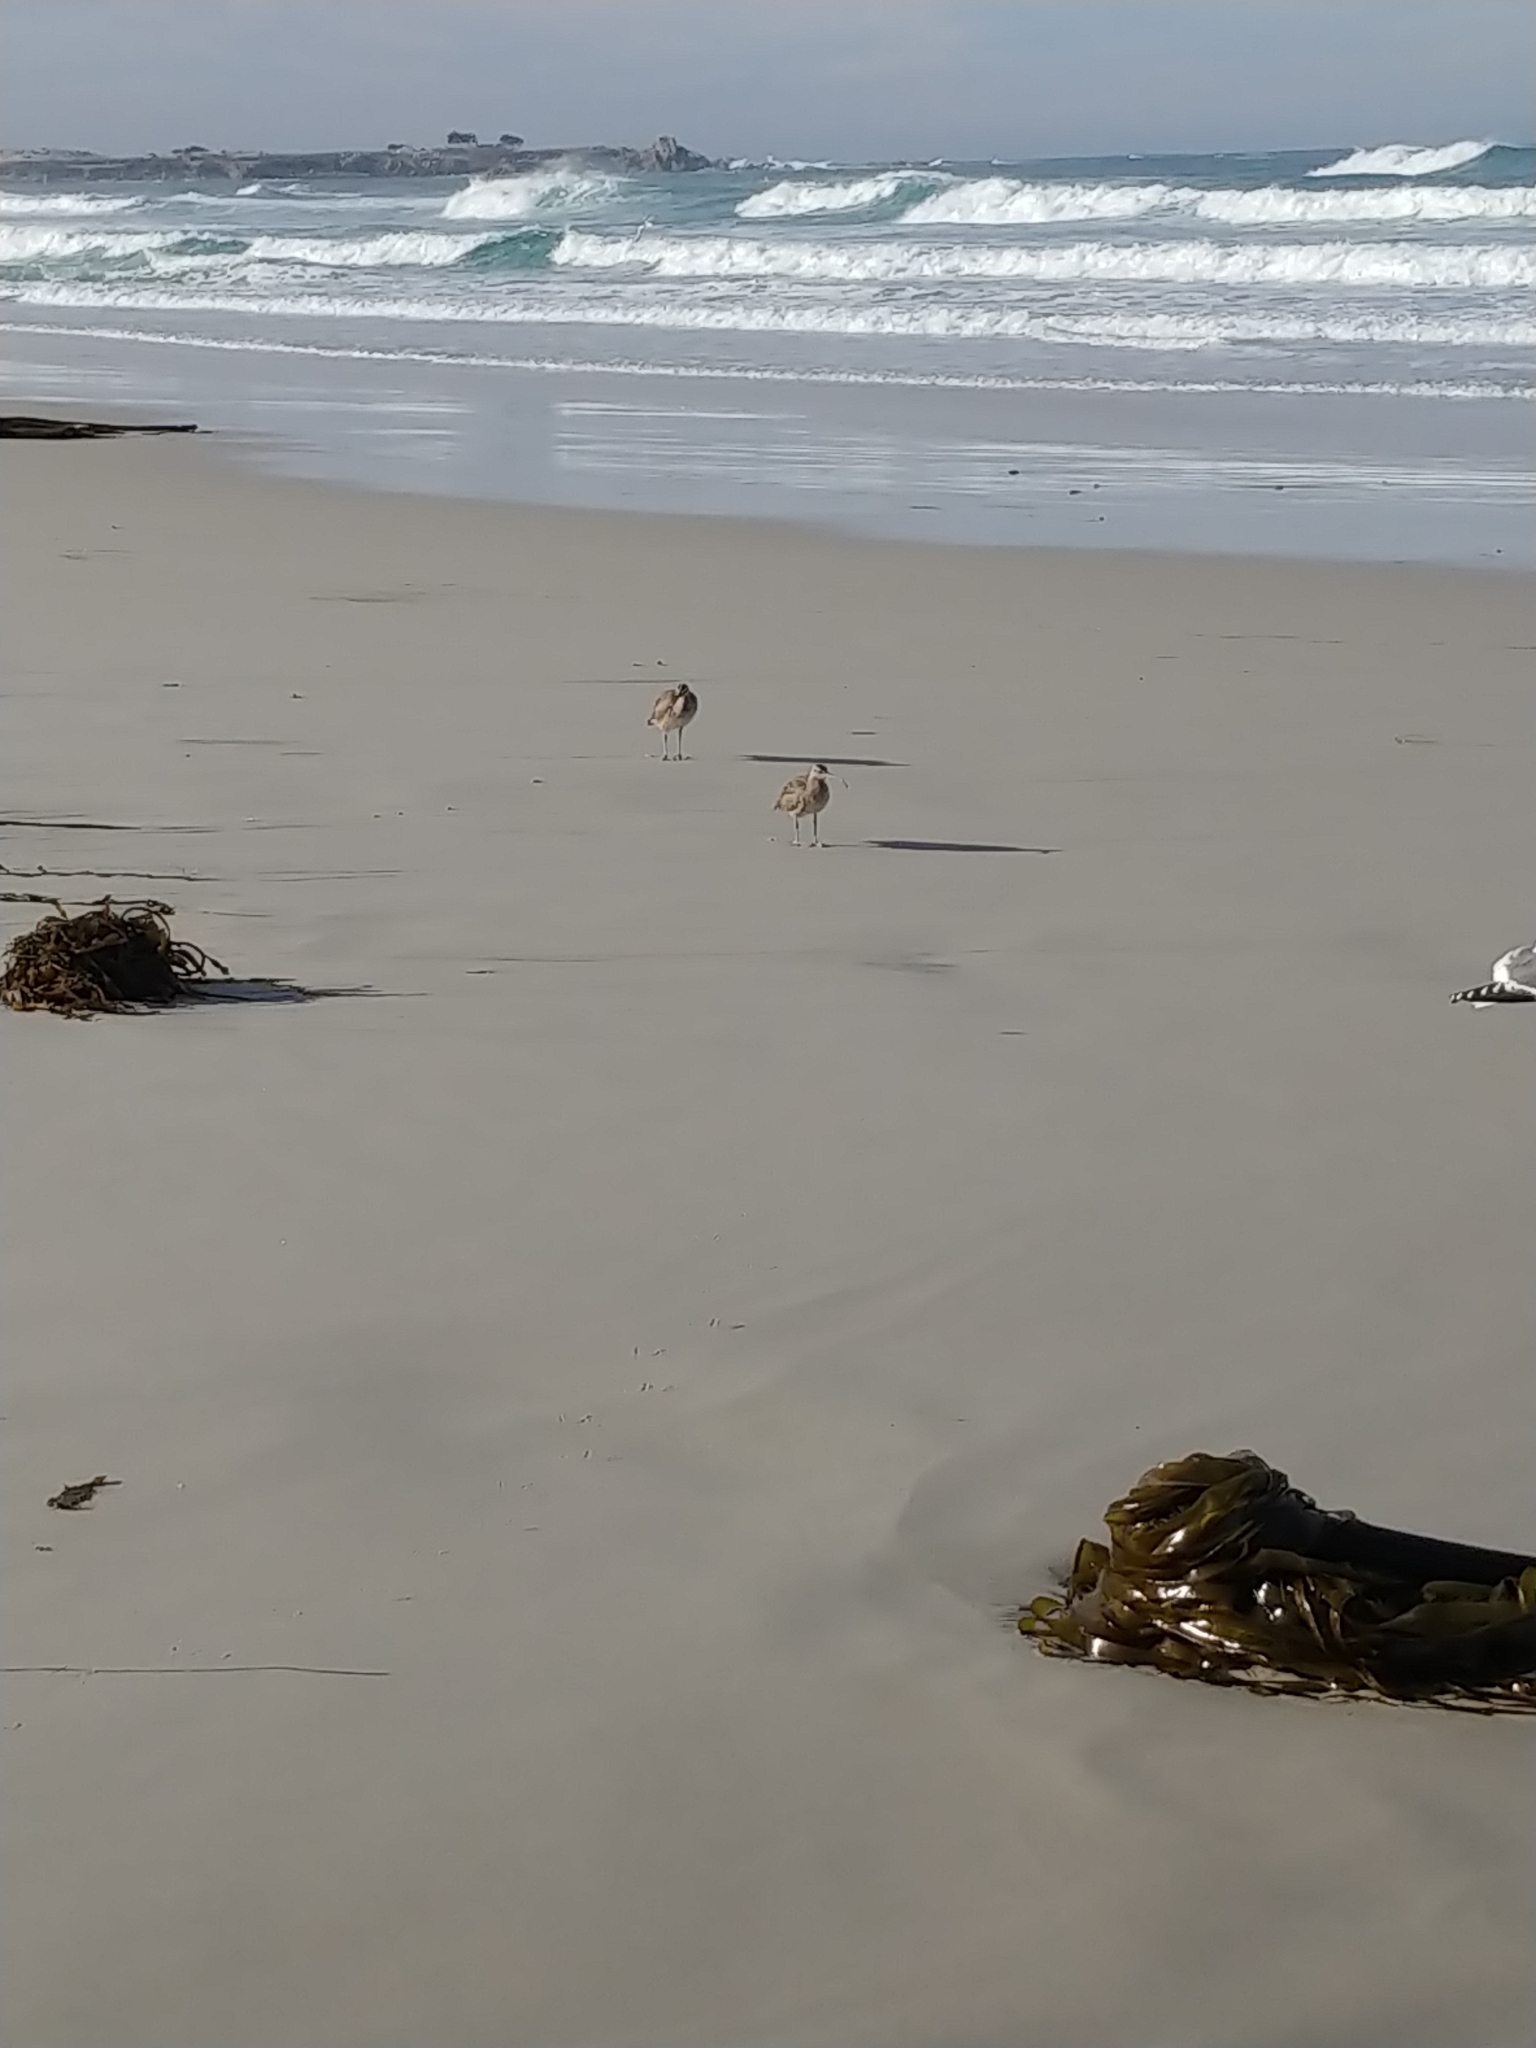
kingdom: Animalia
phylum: Chordata
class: Aves
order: Charadriiformes
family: Scolopacidae
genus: Numenius
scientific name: Numenius phaeopus
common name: Whimbrel
